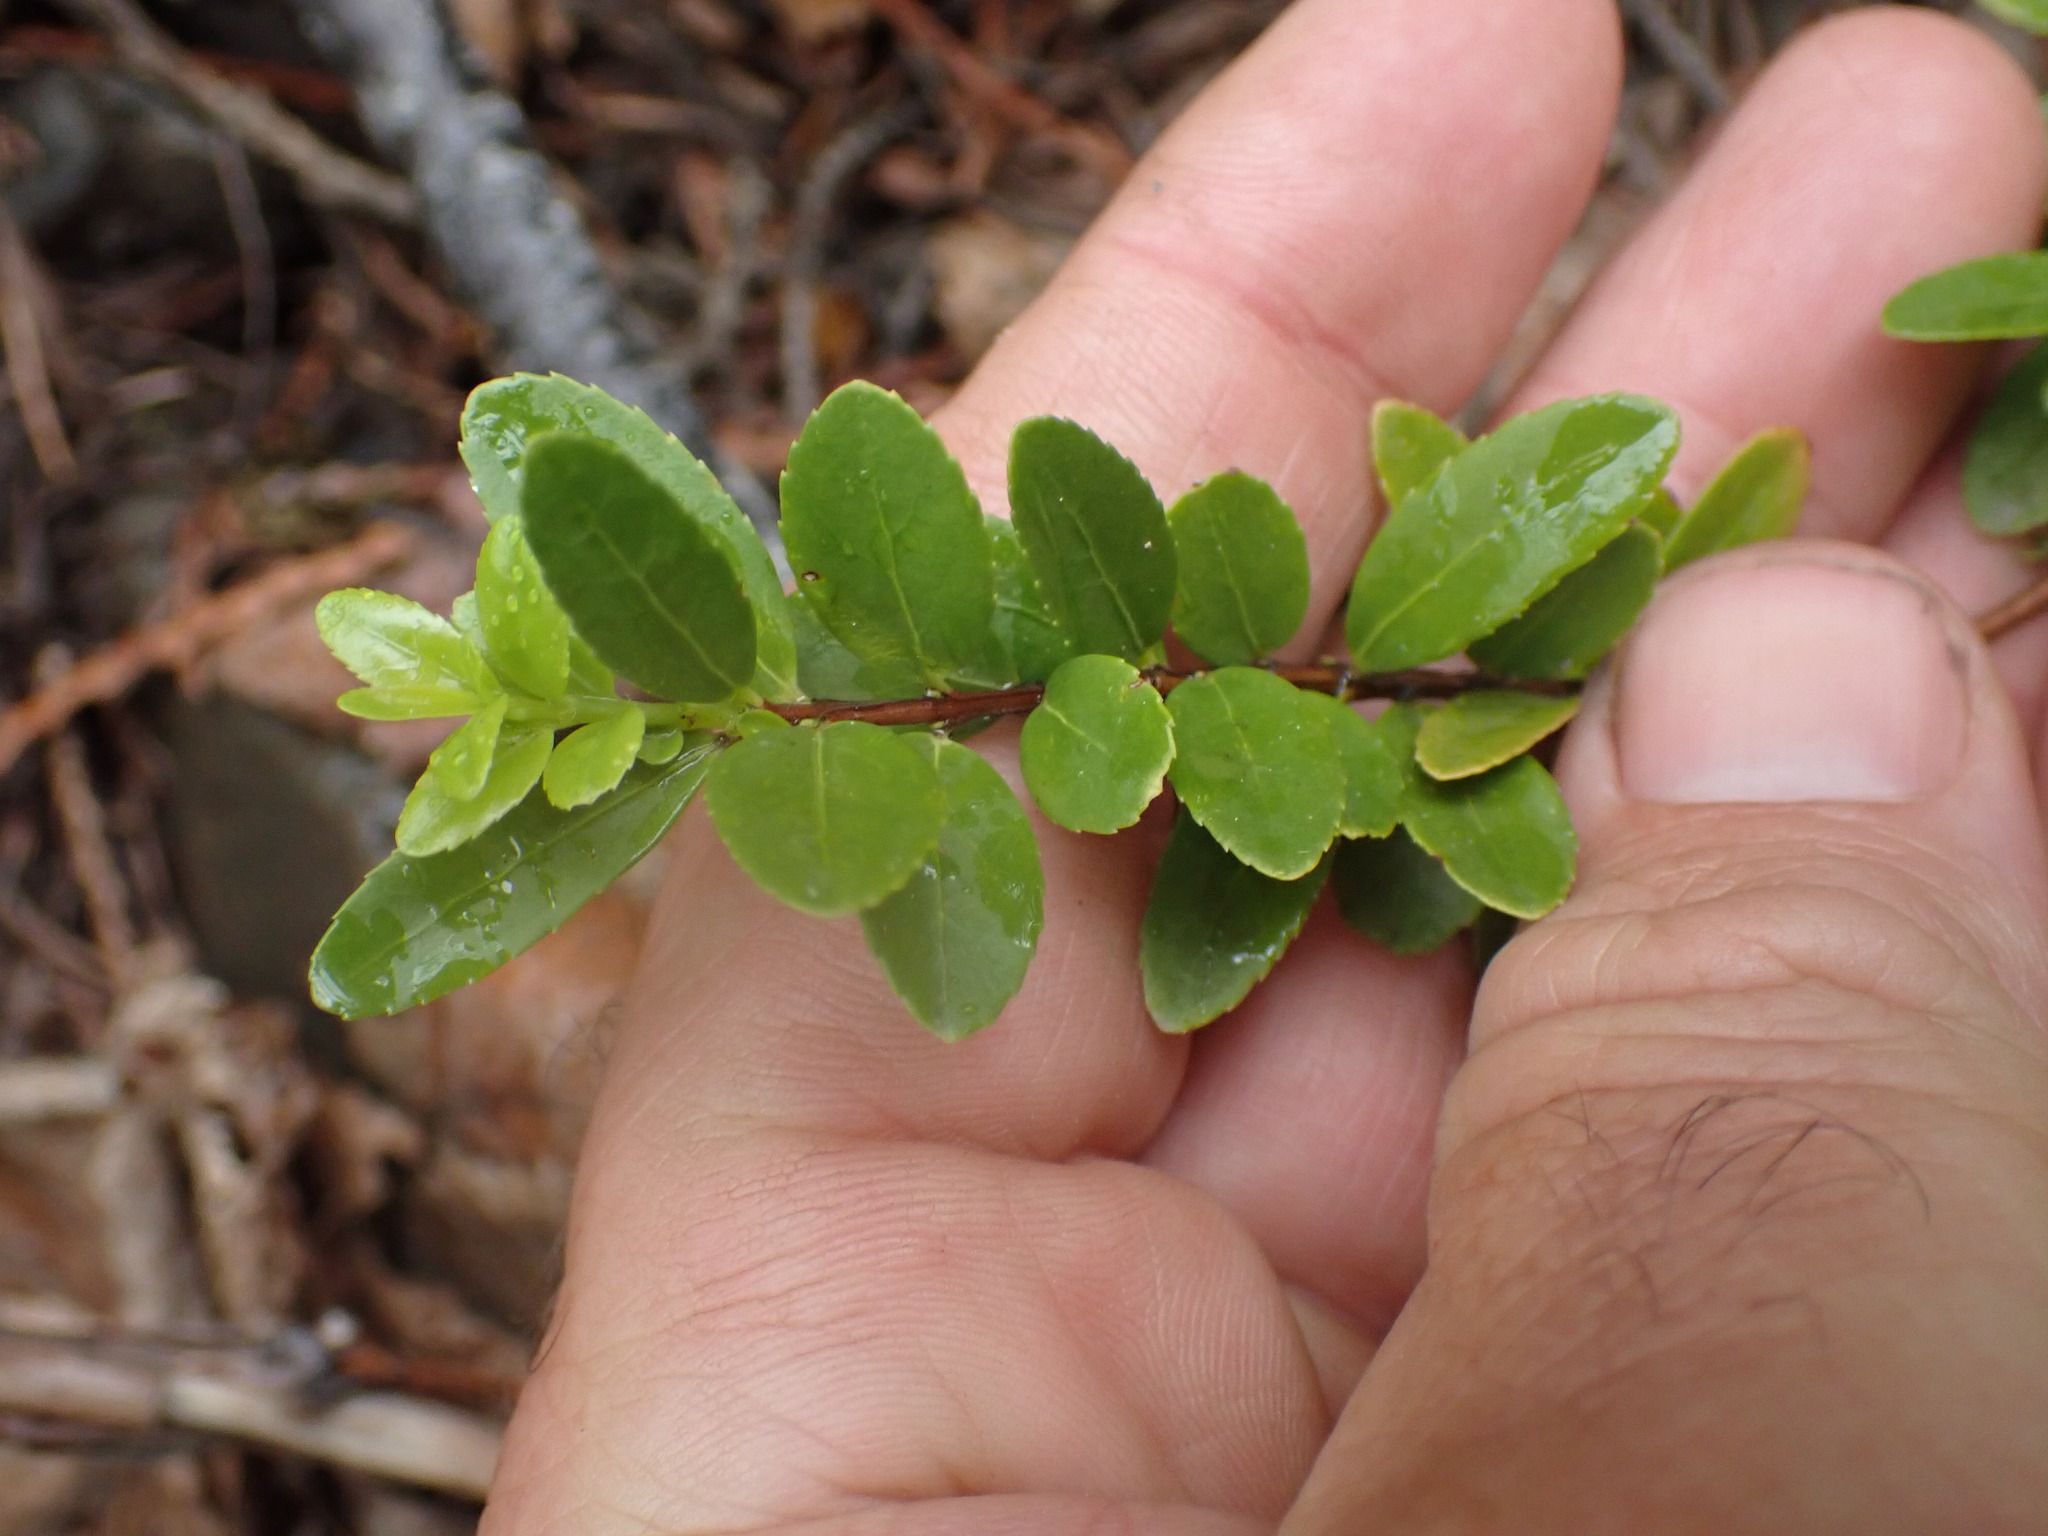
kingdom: Plantae
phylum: Tracheophyta
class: Magnoliopsida
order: Celastrales
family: Celastraceae
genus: Paxistima
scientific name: Paxistima myrsinites
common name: Mountain-lover
